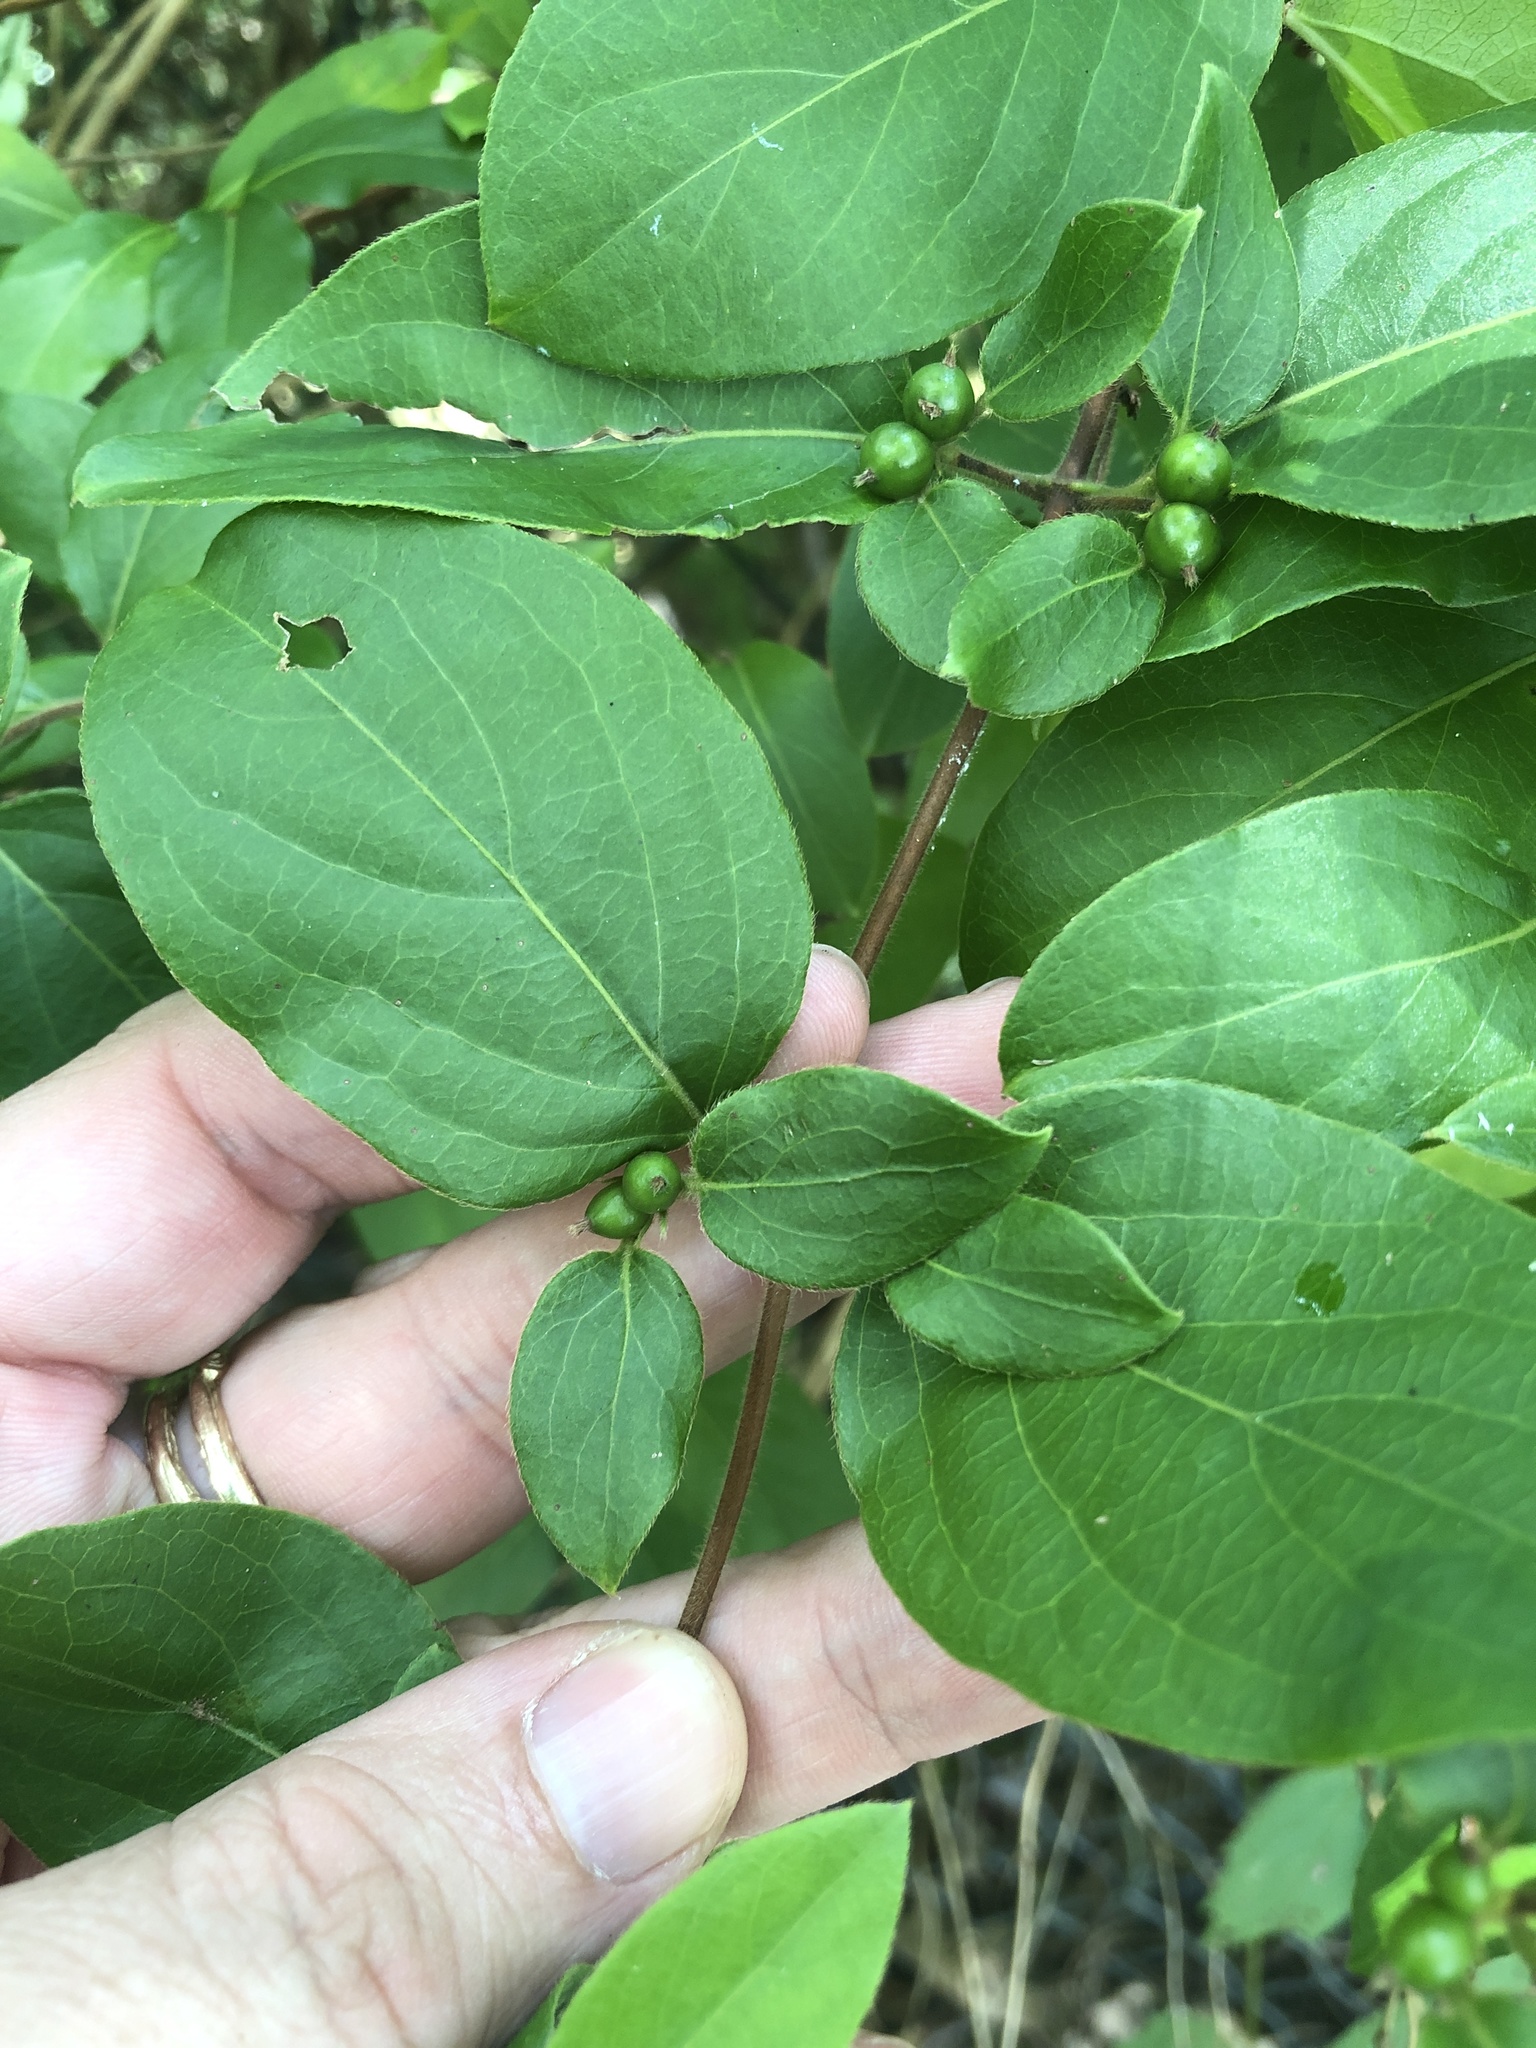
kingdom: Plantae
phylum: Tracheophyta
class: Magnoliopsida
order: Dipsacales
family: Caprifoliaceae
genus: Lonicera
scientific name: Lonicera japonica
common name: Japanese honeysuckle
